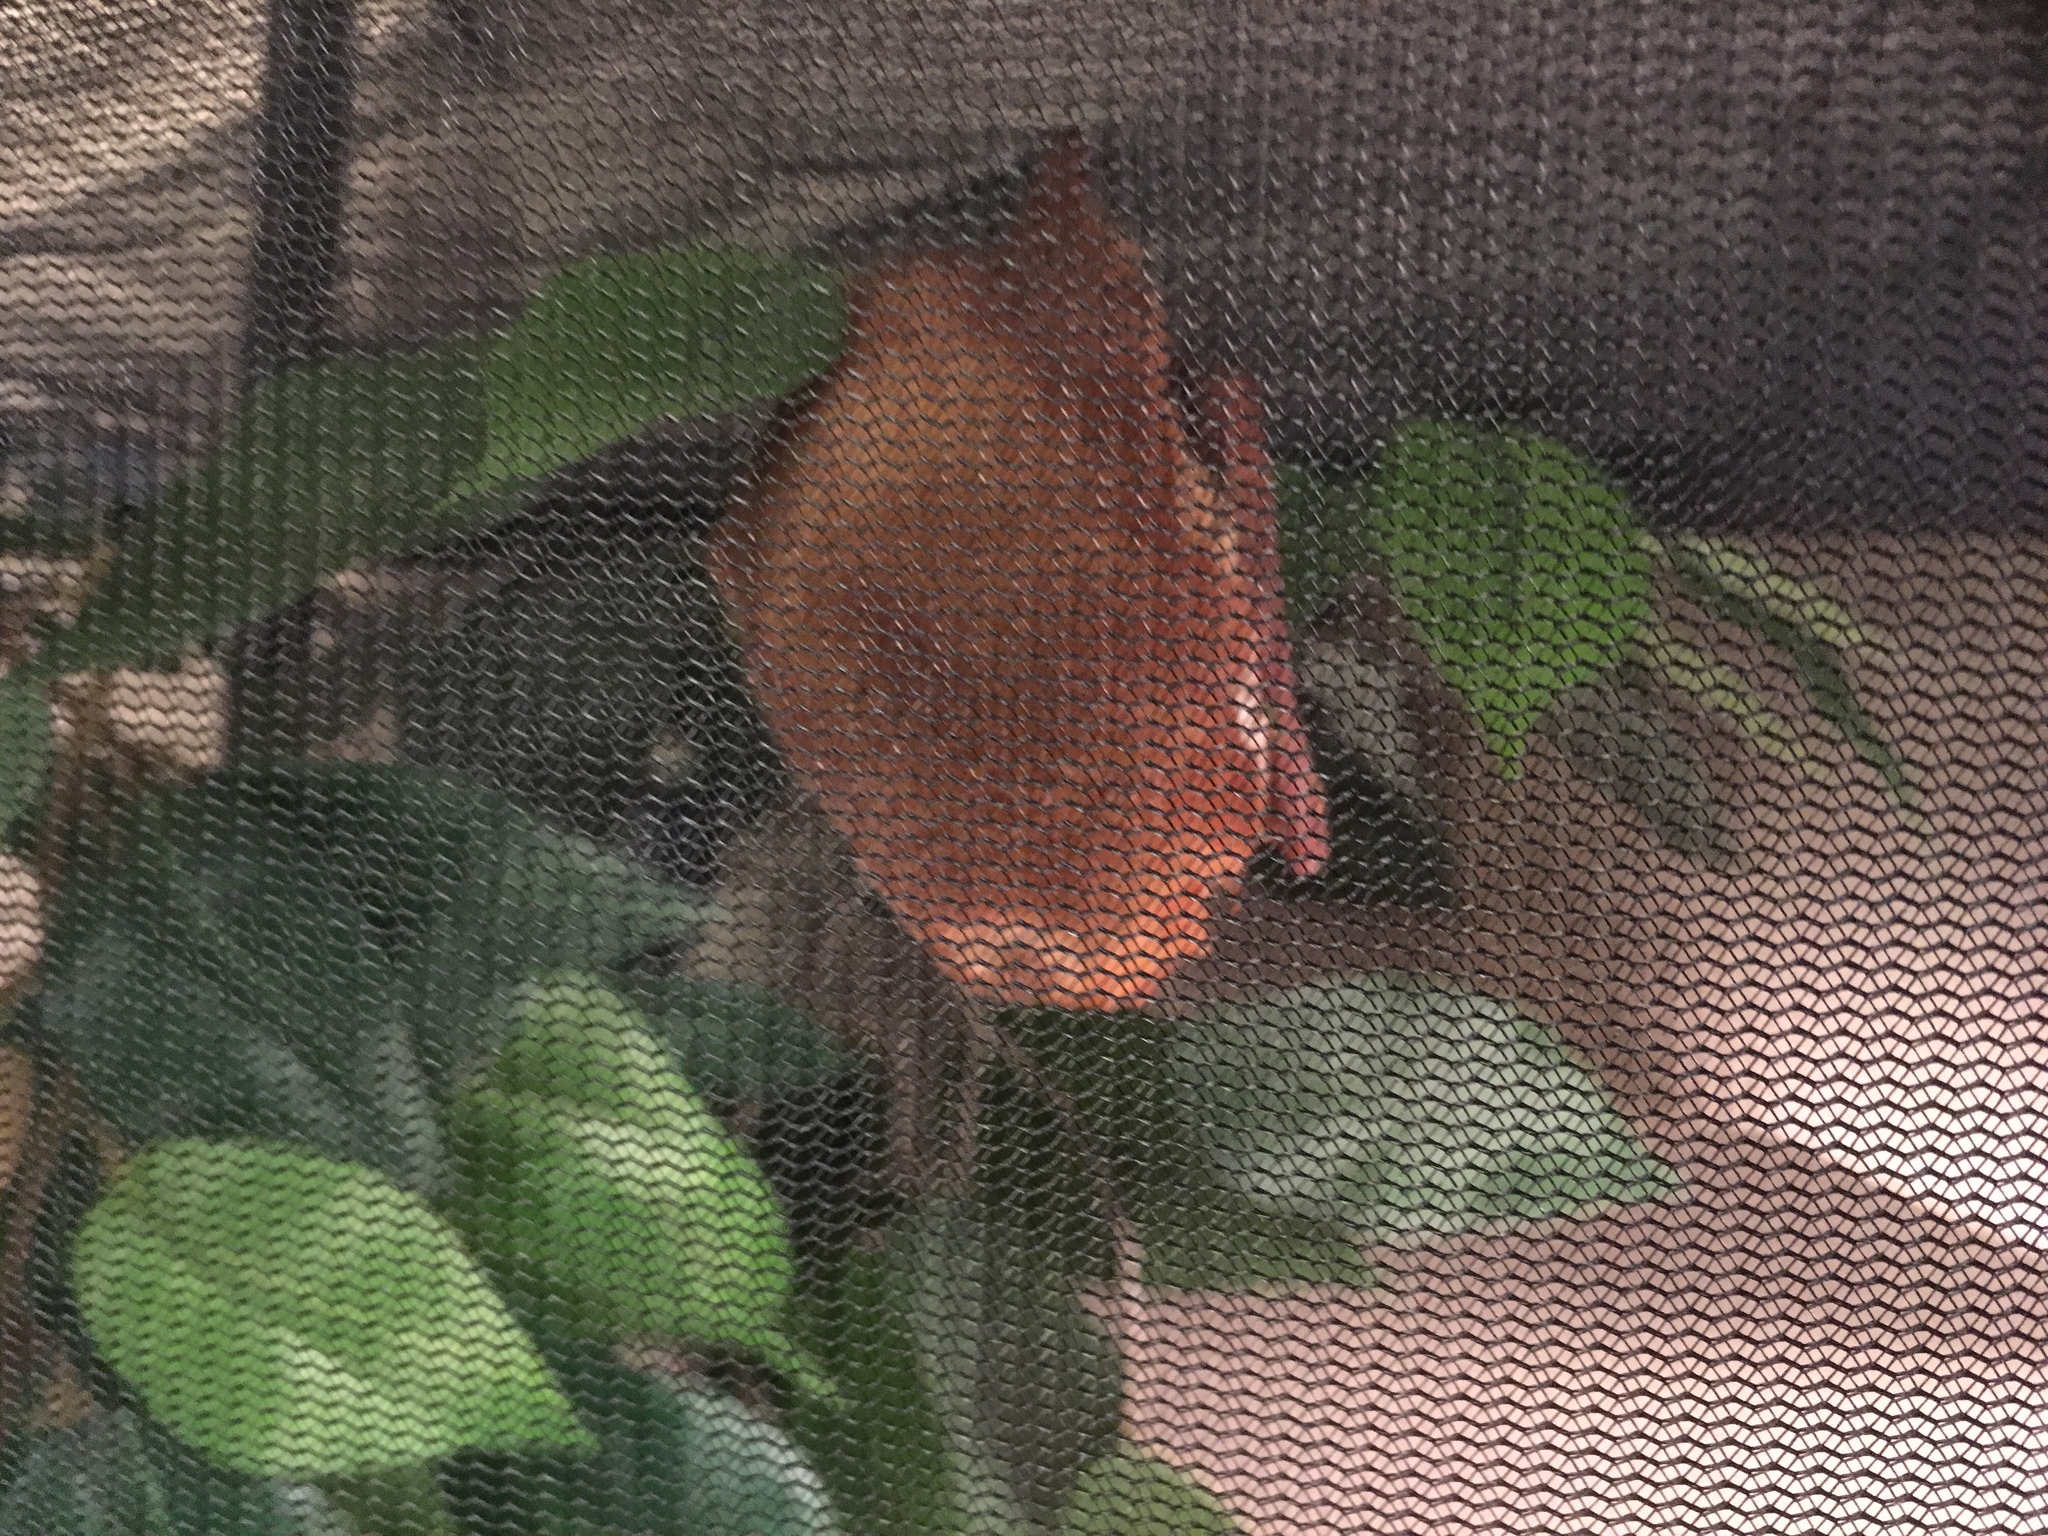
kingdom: Animalia
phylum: Chordata
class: Mammalia
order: Chiroptera
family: Vespertilionidae
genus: Lasiurus
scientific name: Lasiurus borealis
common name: Eastern red bat
